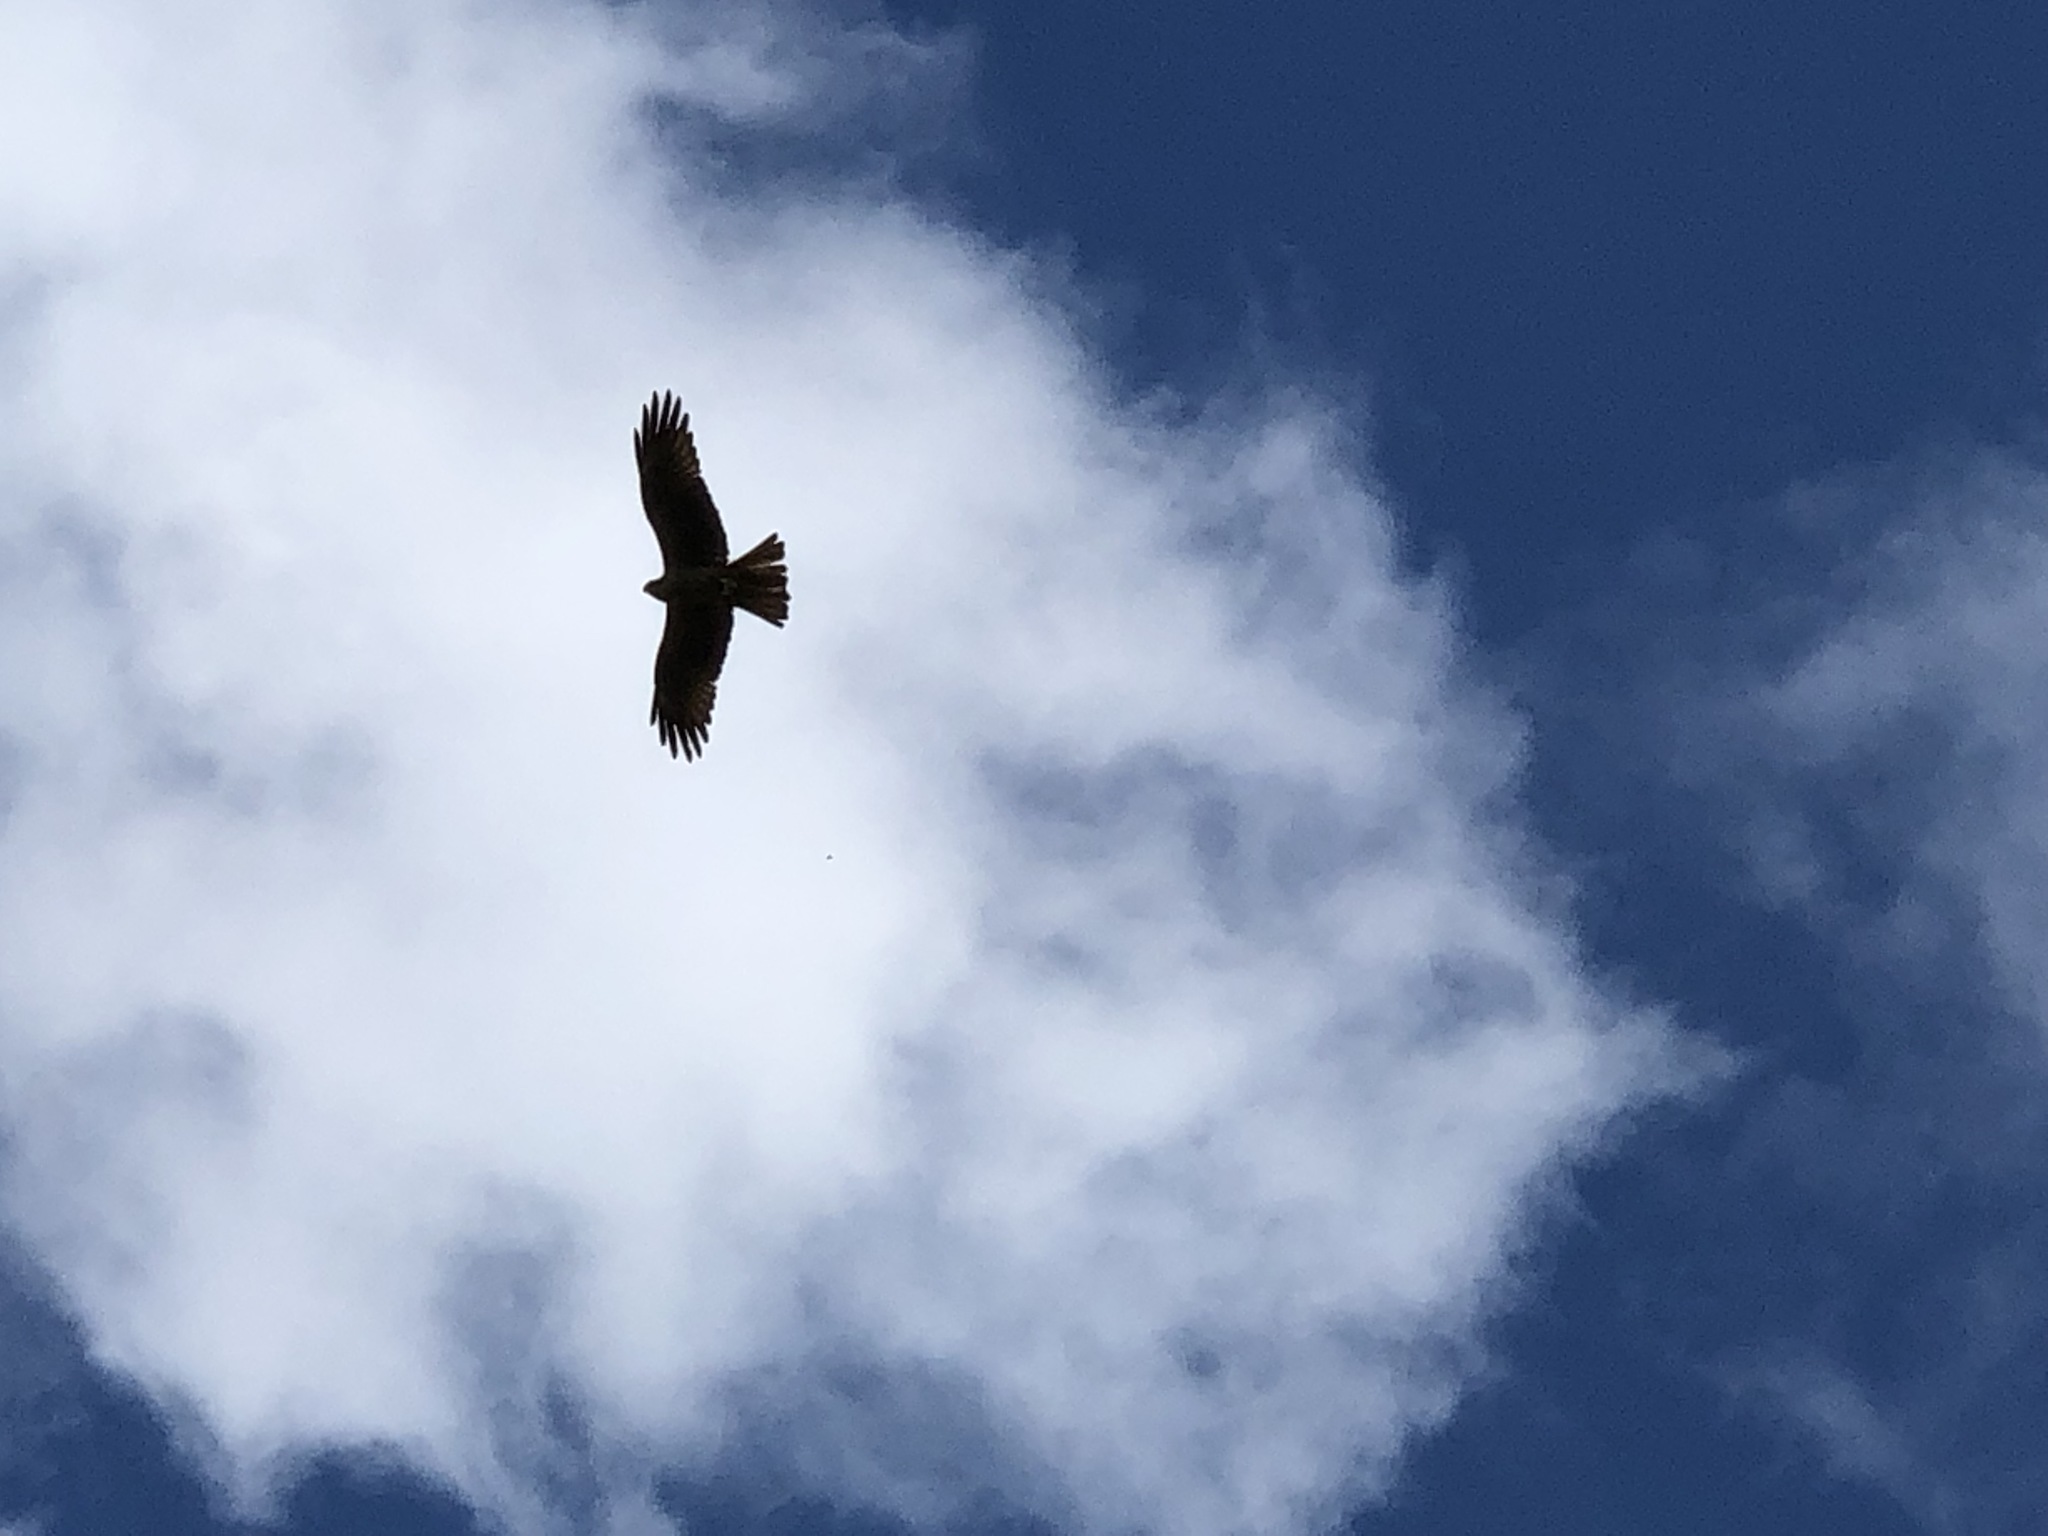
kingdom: Animalia
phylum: Chordata
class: Aves
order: Accipitriformes
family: Accipitridae
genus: Milvus
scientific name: Milvus migrans
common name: Black kite
